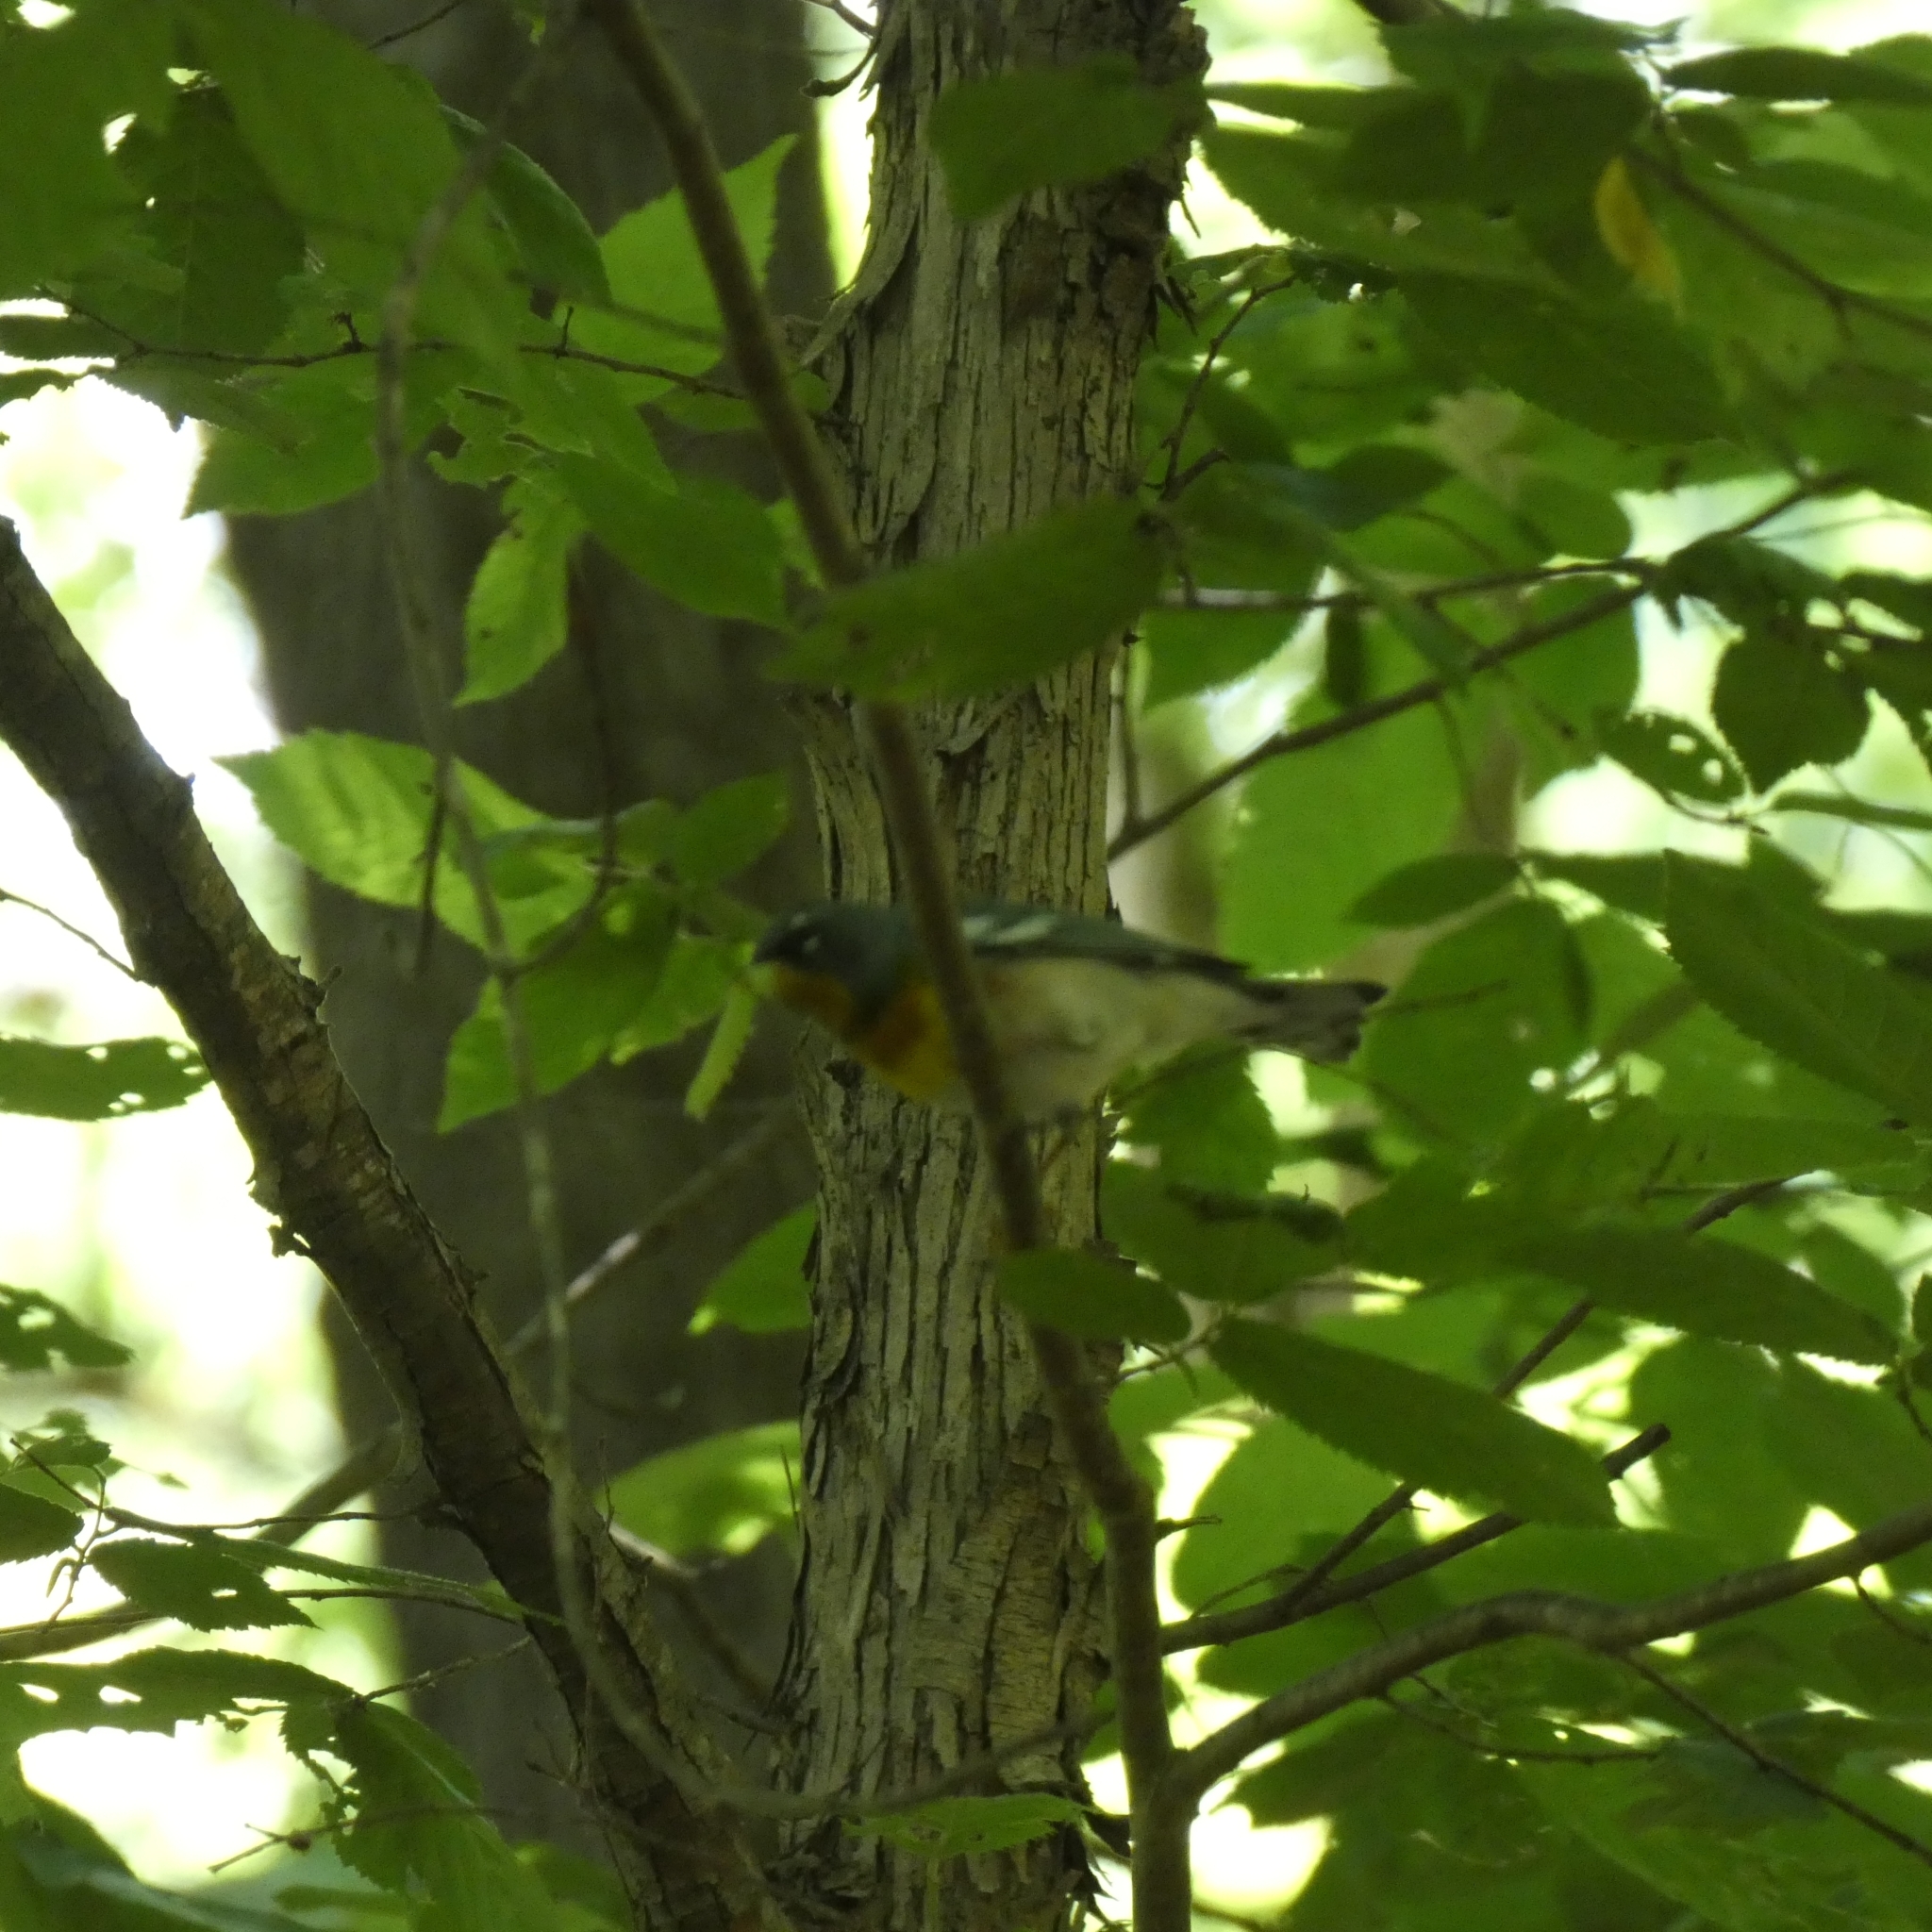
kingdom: Animalia
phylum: Chordata
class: Aves
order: Passeriformes
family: Parulidae
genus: Setophaga
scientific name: Setophaga americana
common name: Northern parula
